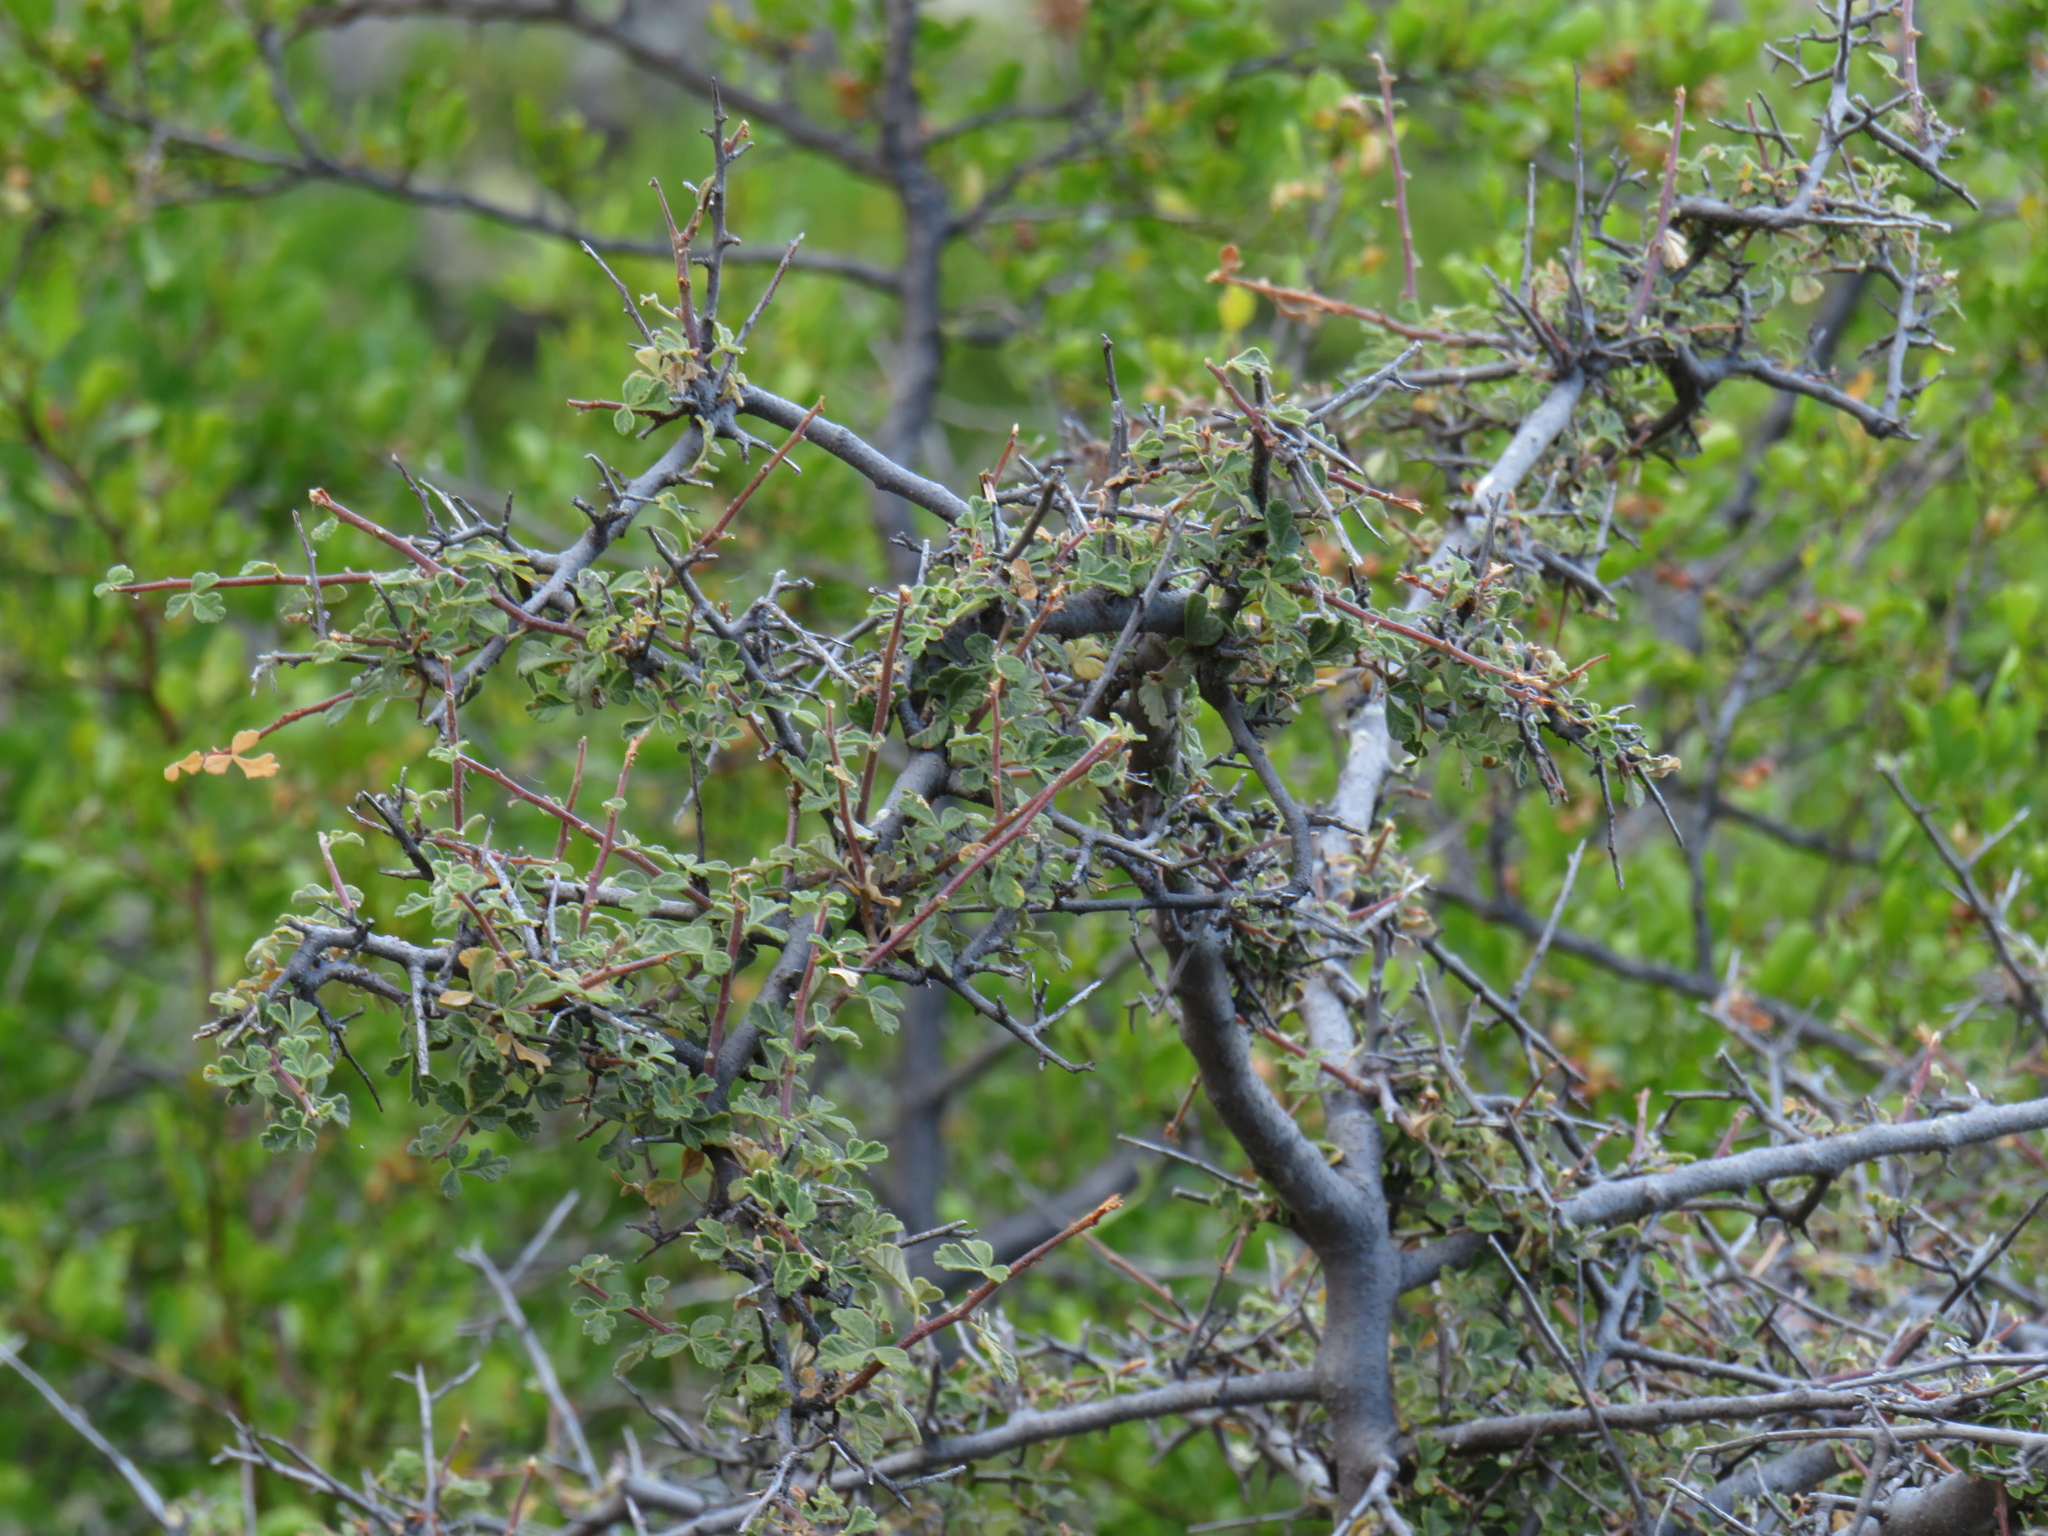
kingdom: Plantae
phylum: Tracheophyta
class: Magnoliopsida
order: Sapindales
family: Anacardiaceae
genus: Searsia
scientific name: Searsia incisa
